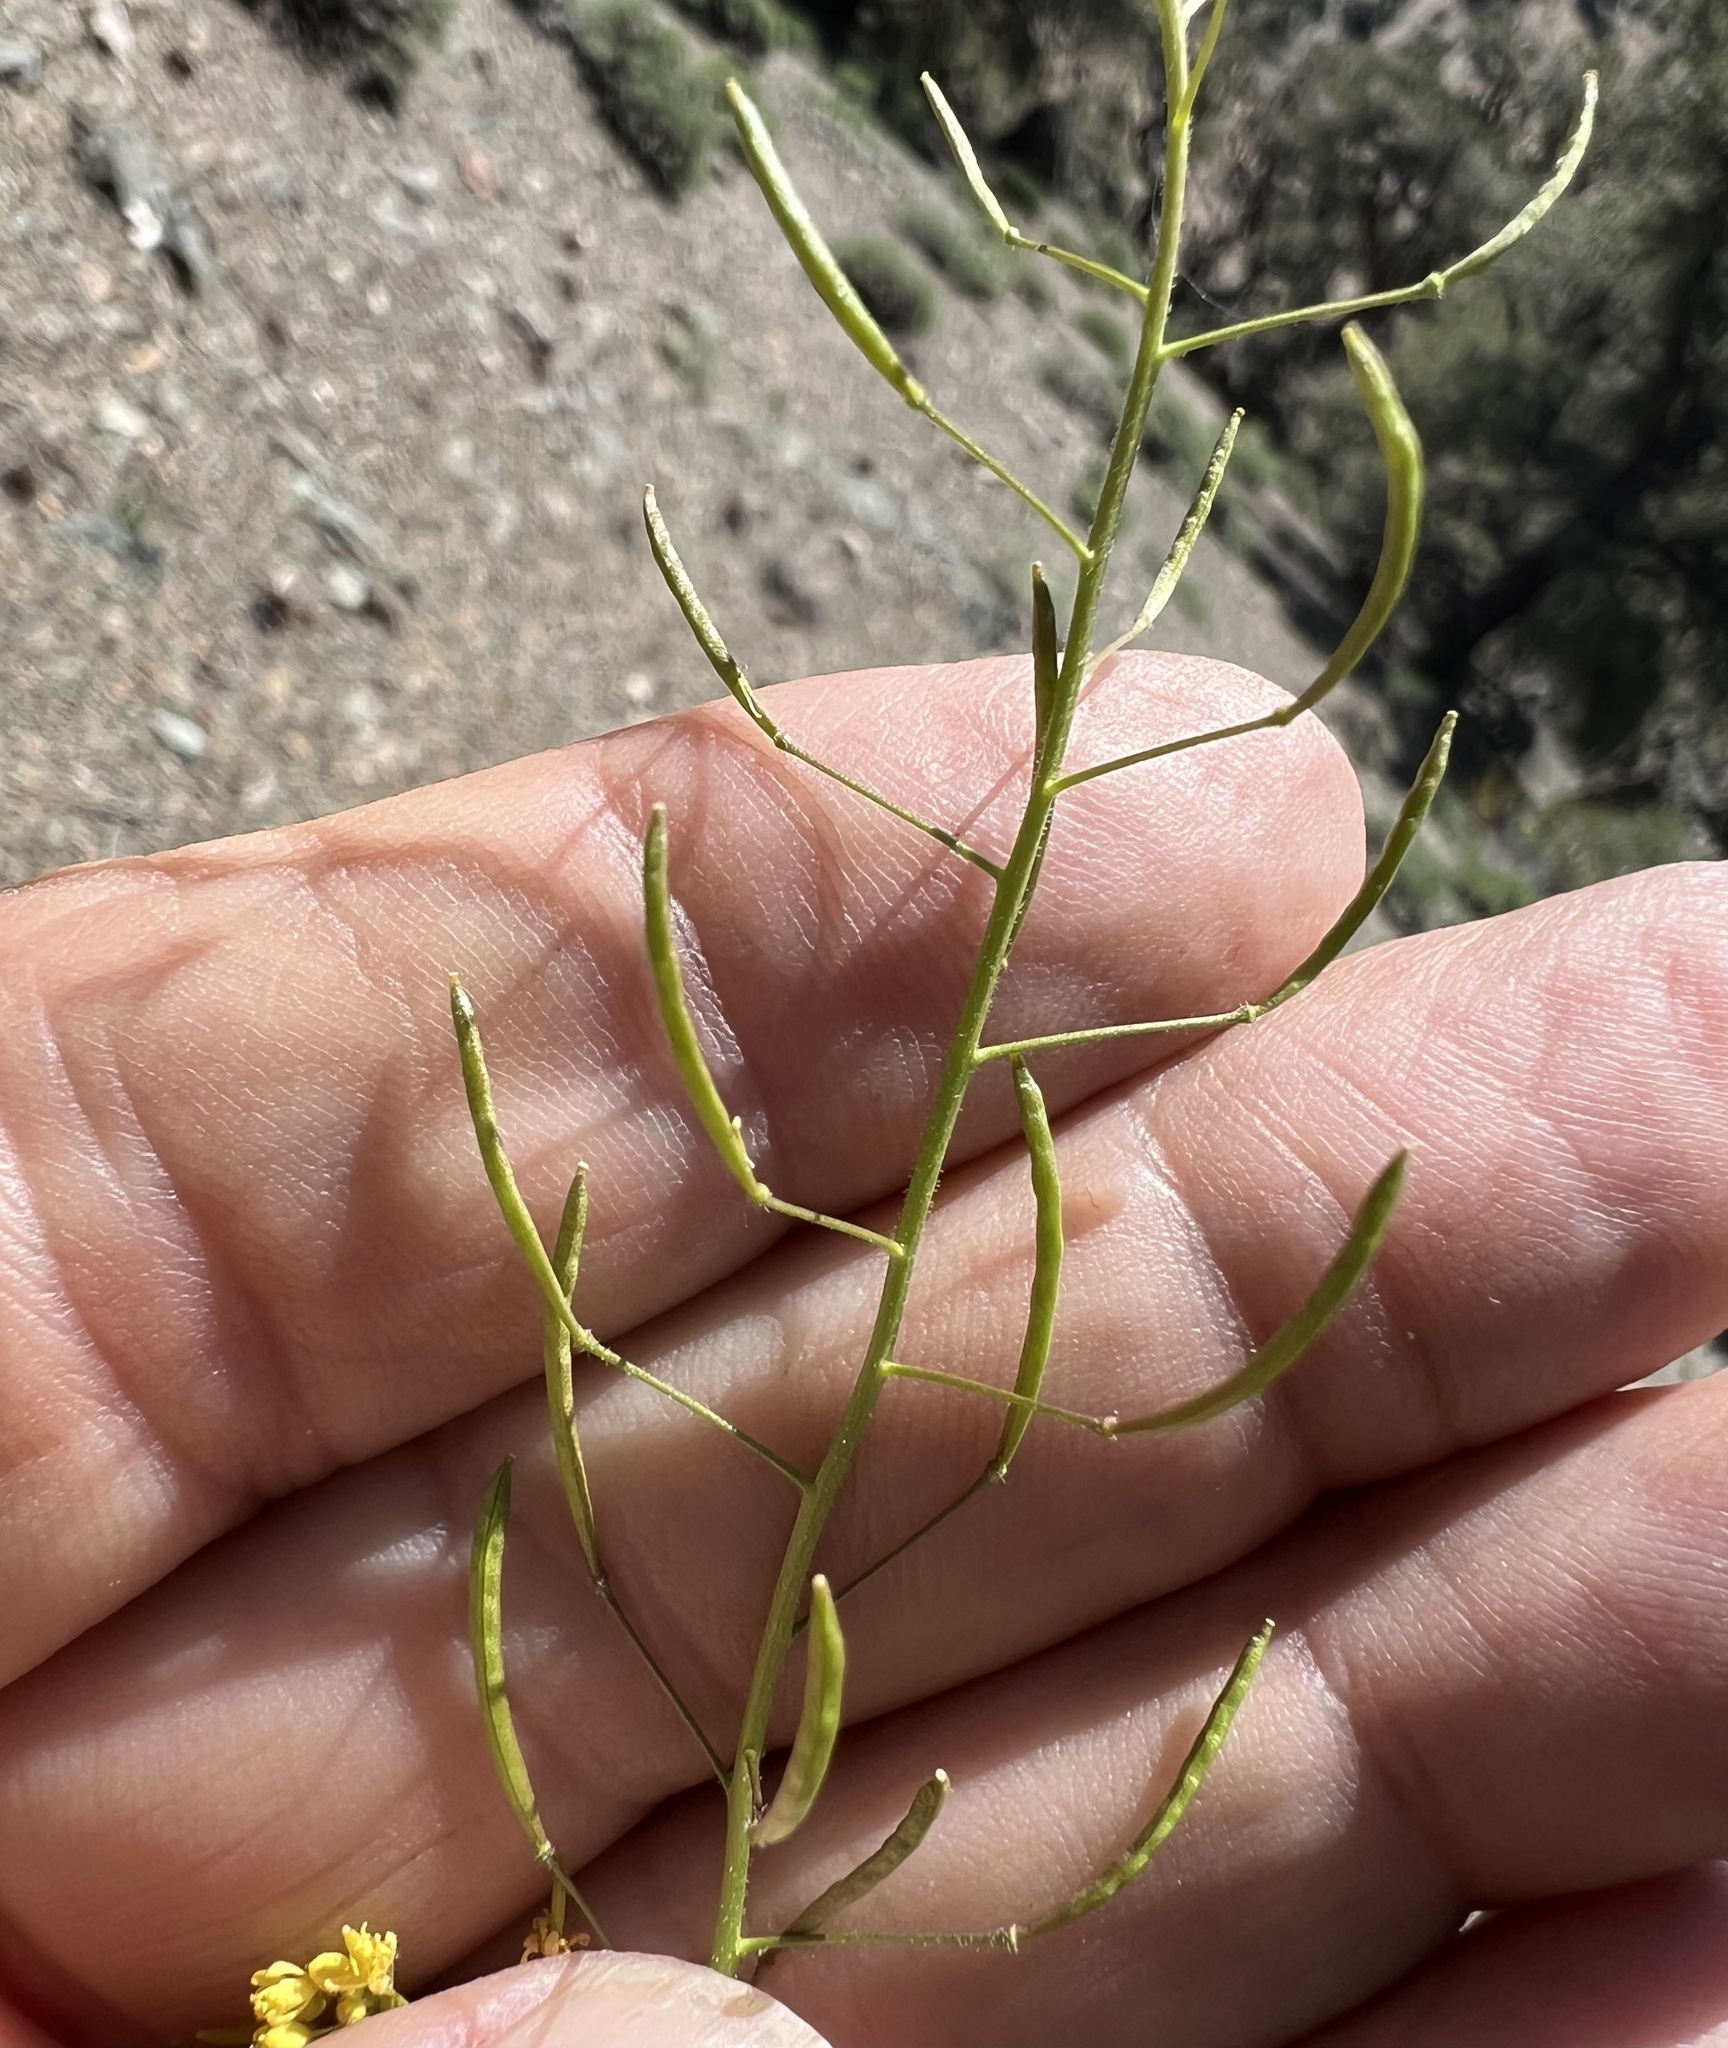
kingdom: Plantae
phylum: Tracheophyta
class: Magnoliopsida
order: Brassicales
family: Brassicaceae
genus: Descurainia
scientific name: Descurainia pinnata
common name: Western tansy mustard
